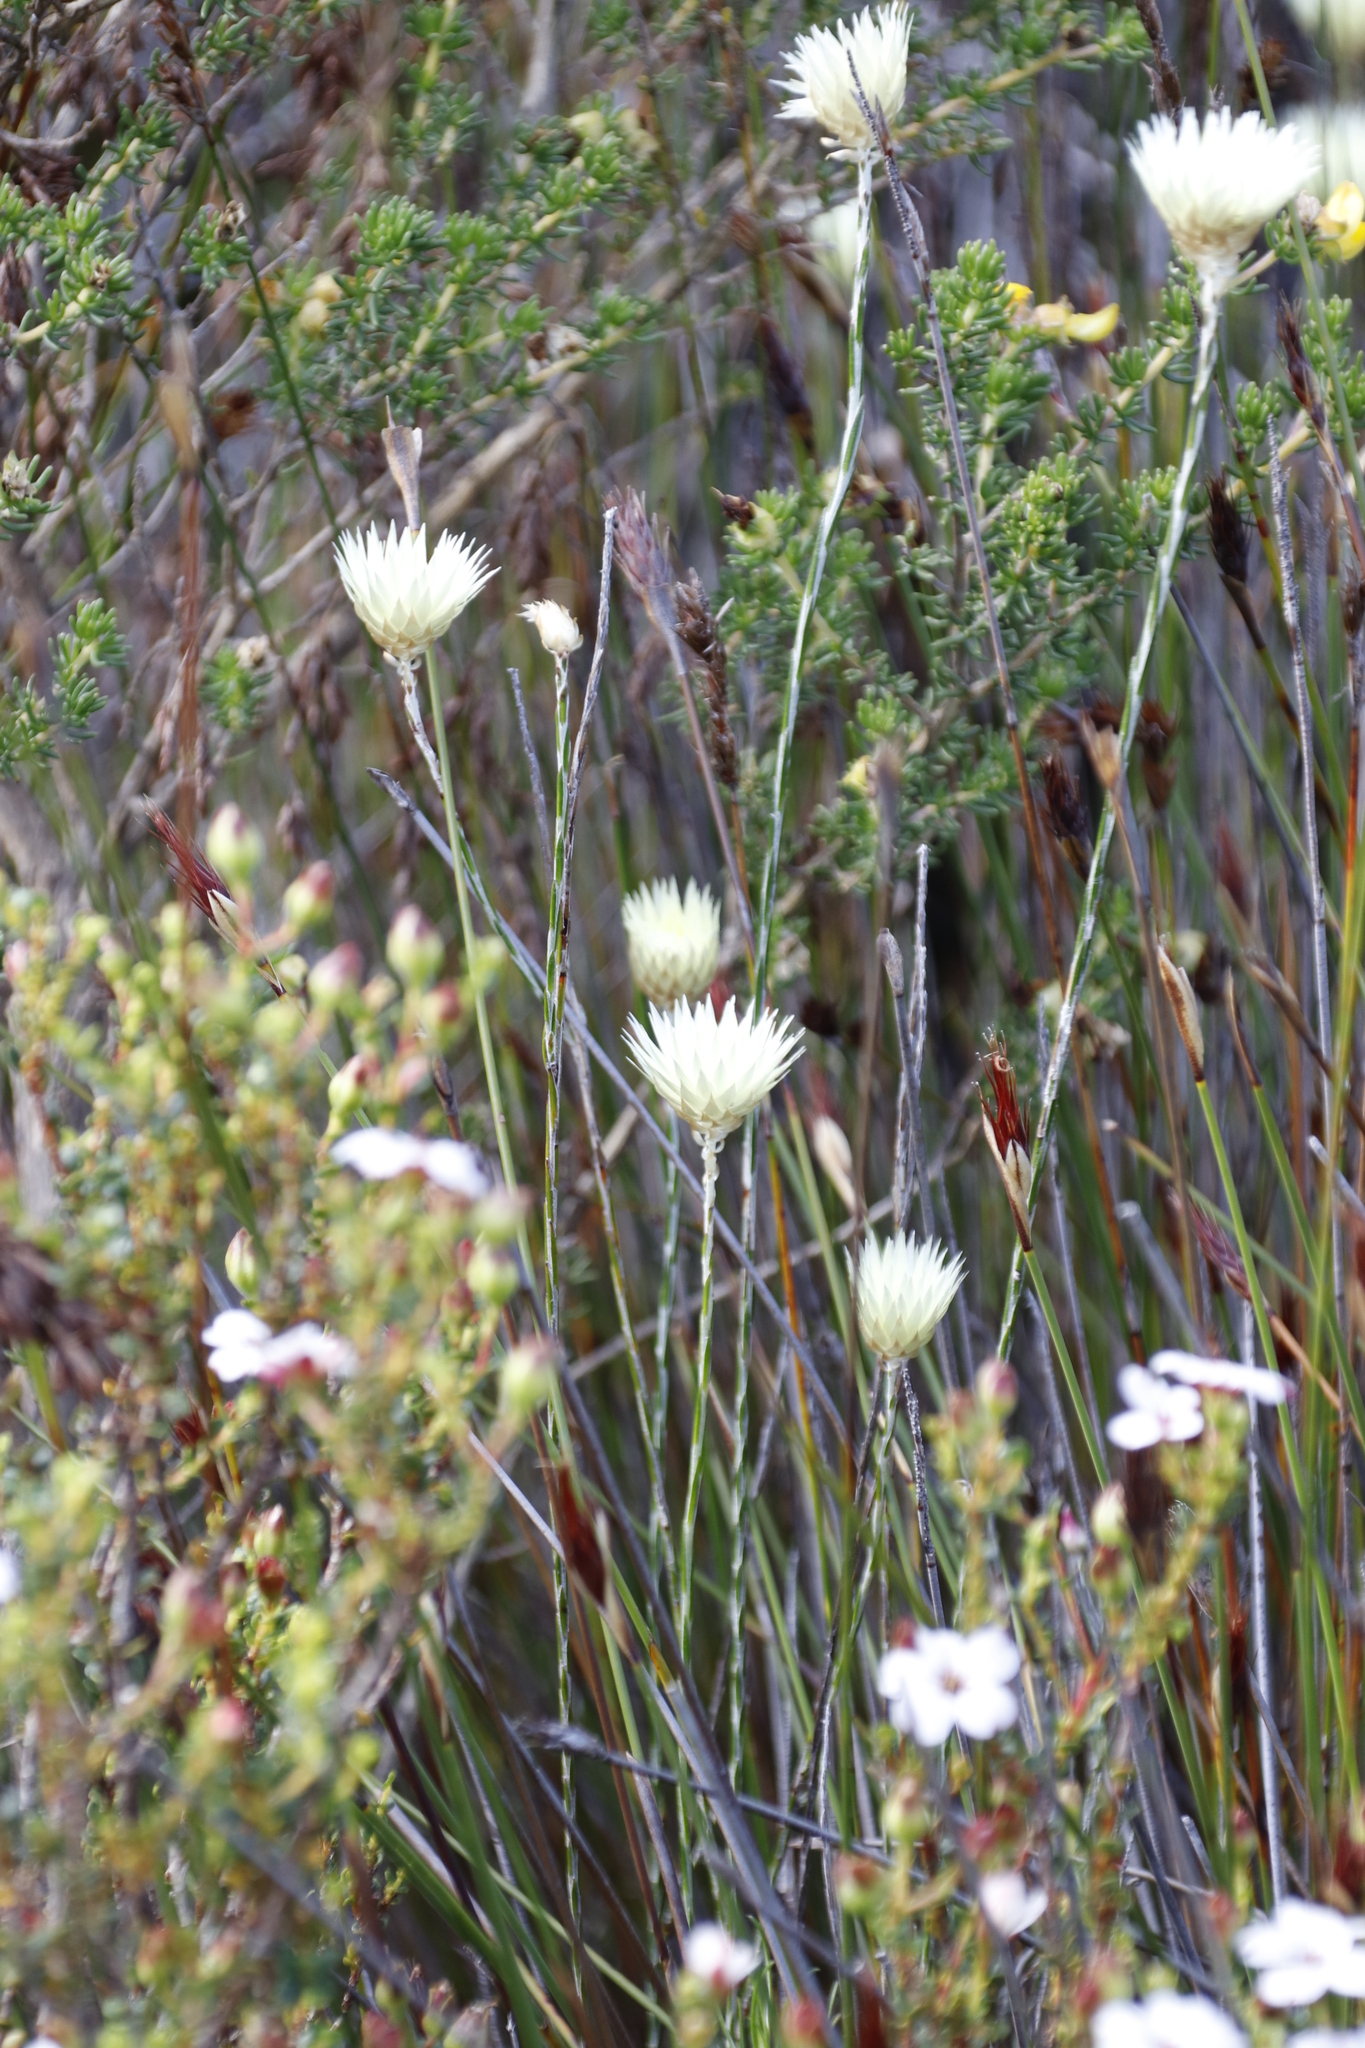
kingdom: Plantae
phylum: Tracheophyta
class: Magnoliopsida
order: Asterales
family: Asteraceae
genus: Edmondia
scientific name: Edmondia sesamoides
